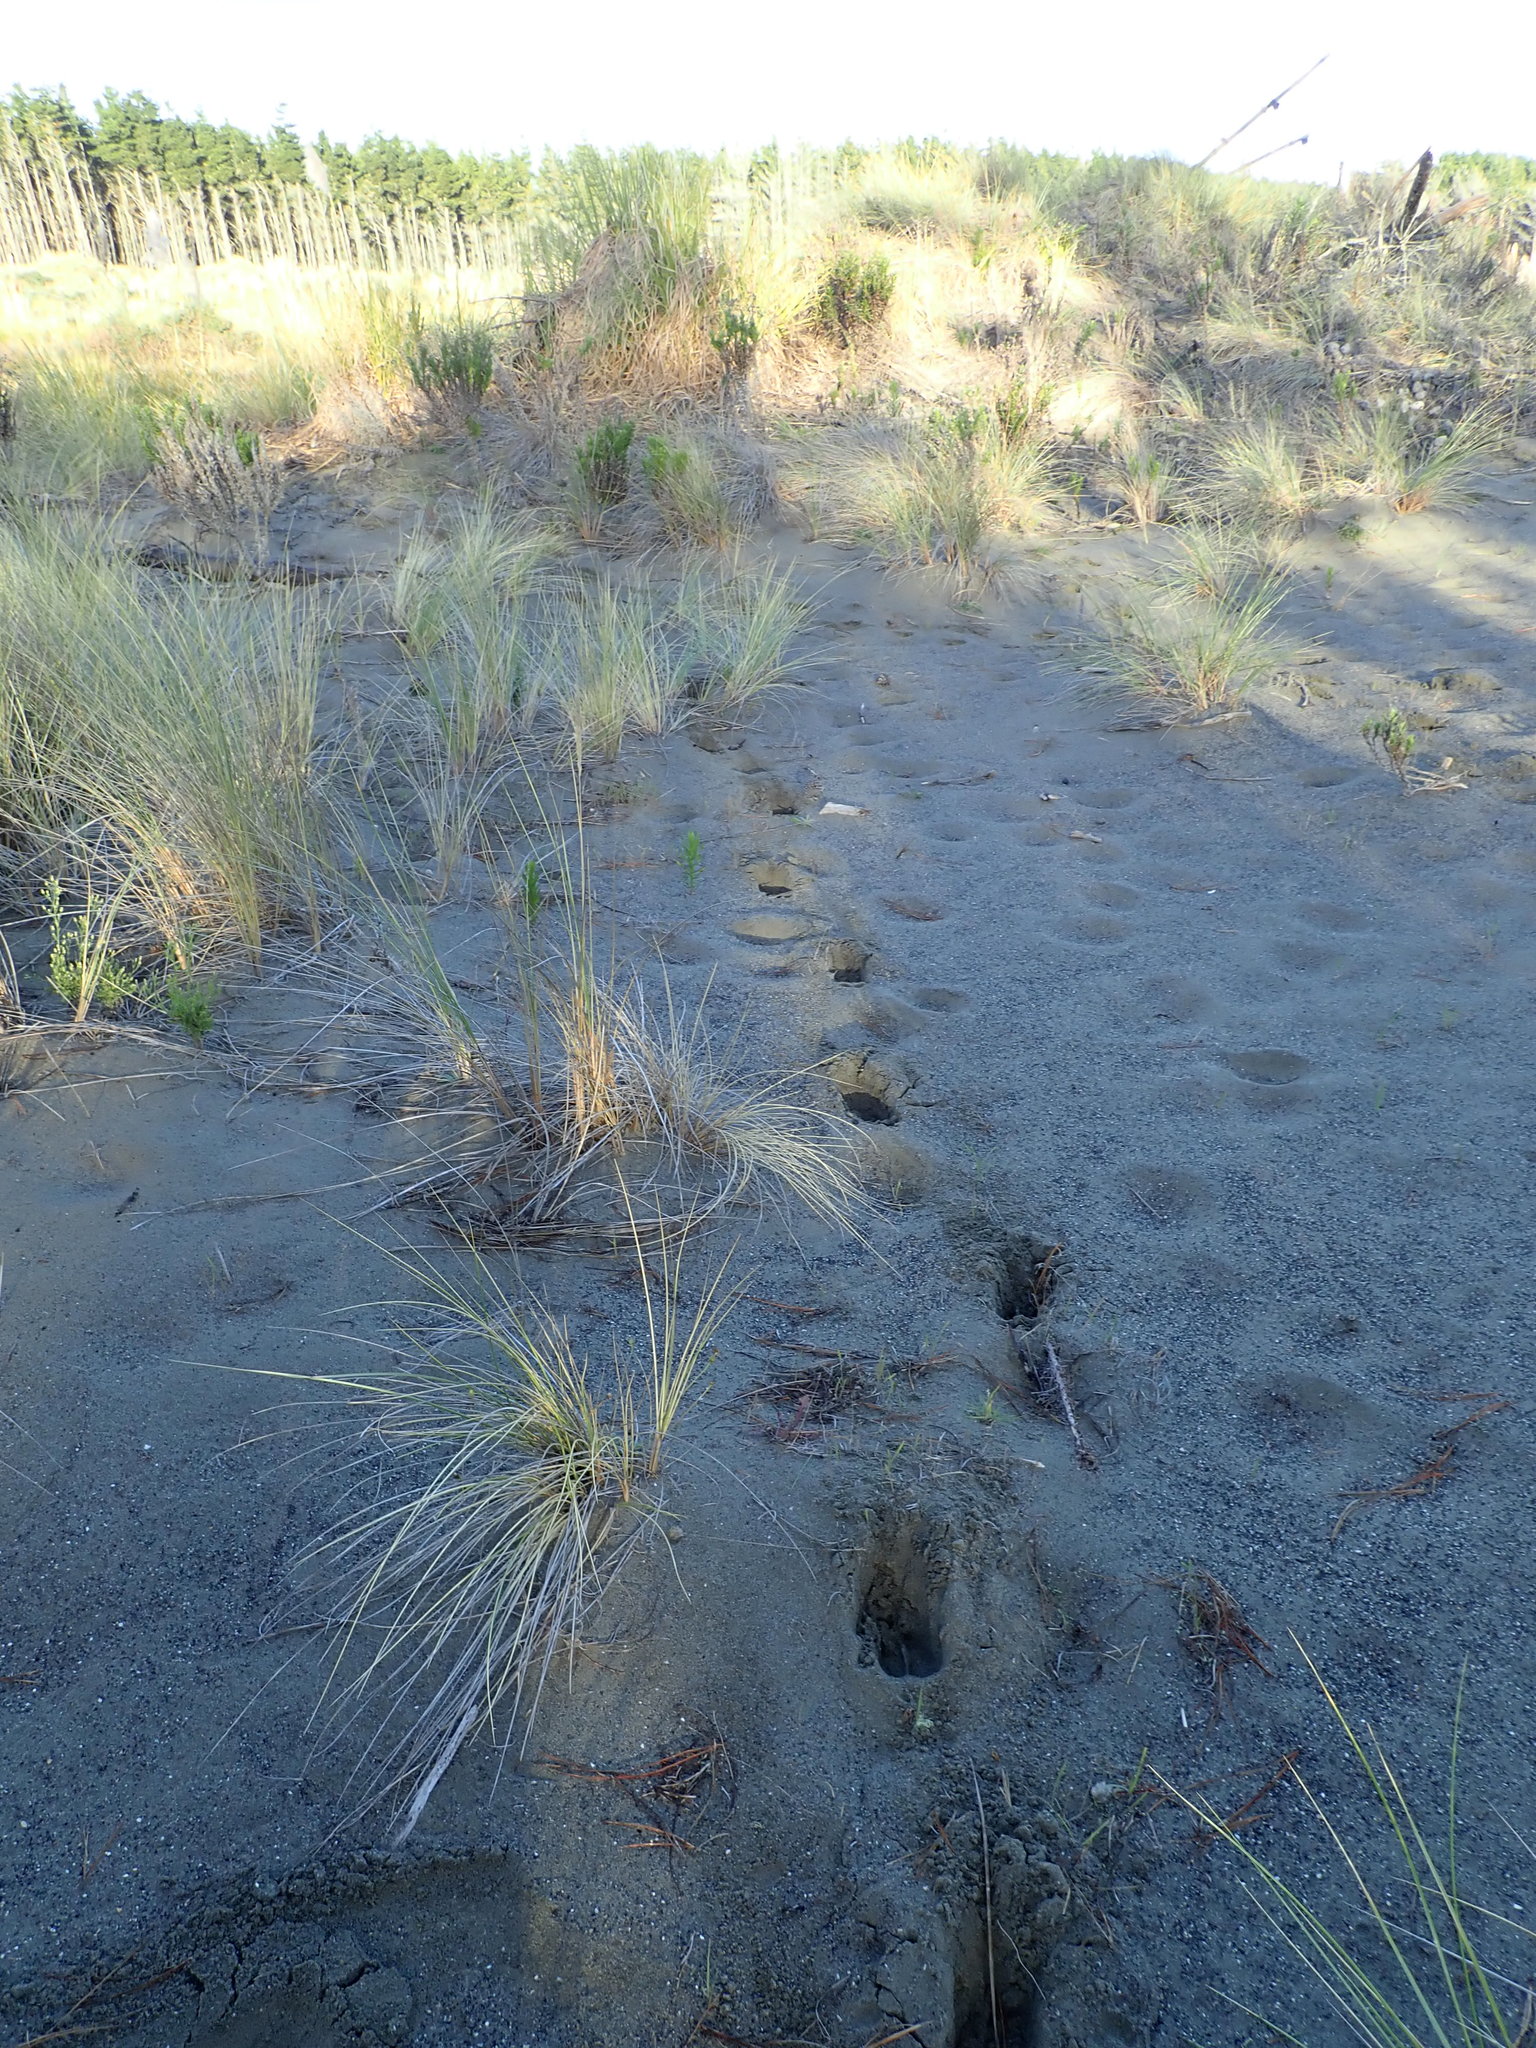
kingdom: Animalia
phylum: Chordata
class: Mammalia
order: Artiodactyla
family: Cervidae
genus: Rusa
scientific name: Rusa unicolor
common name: Sambar
